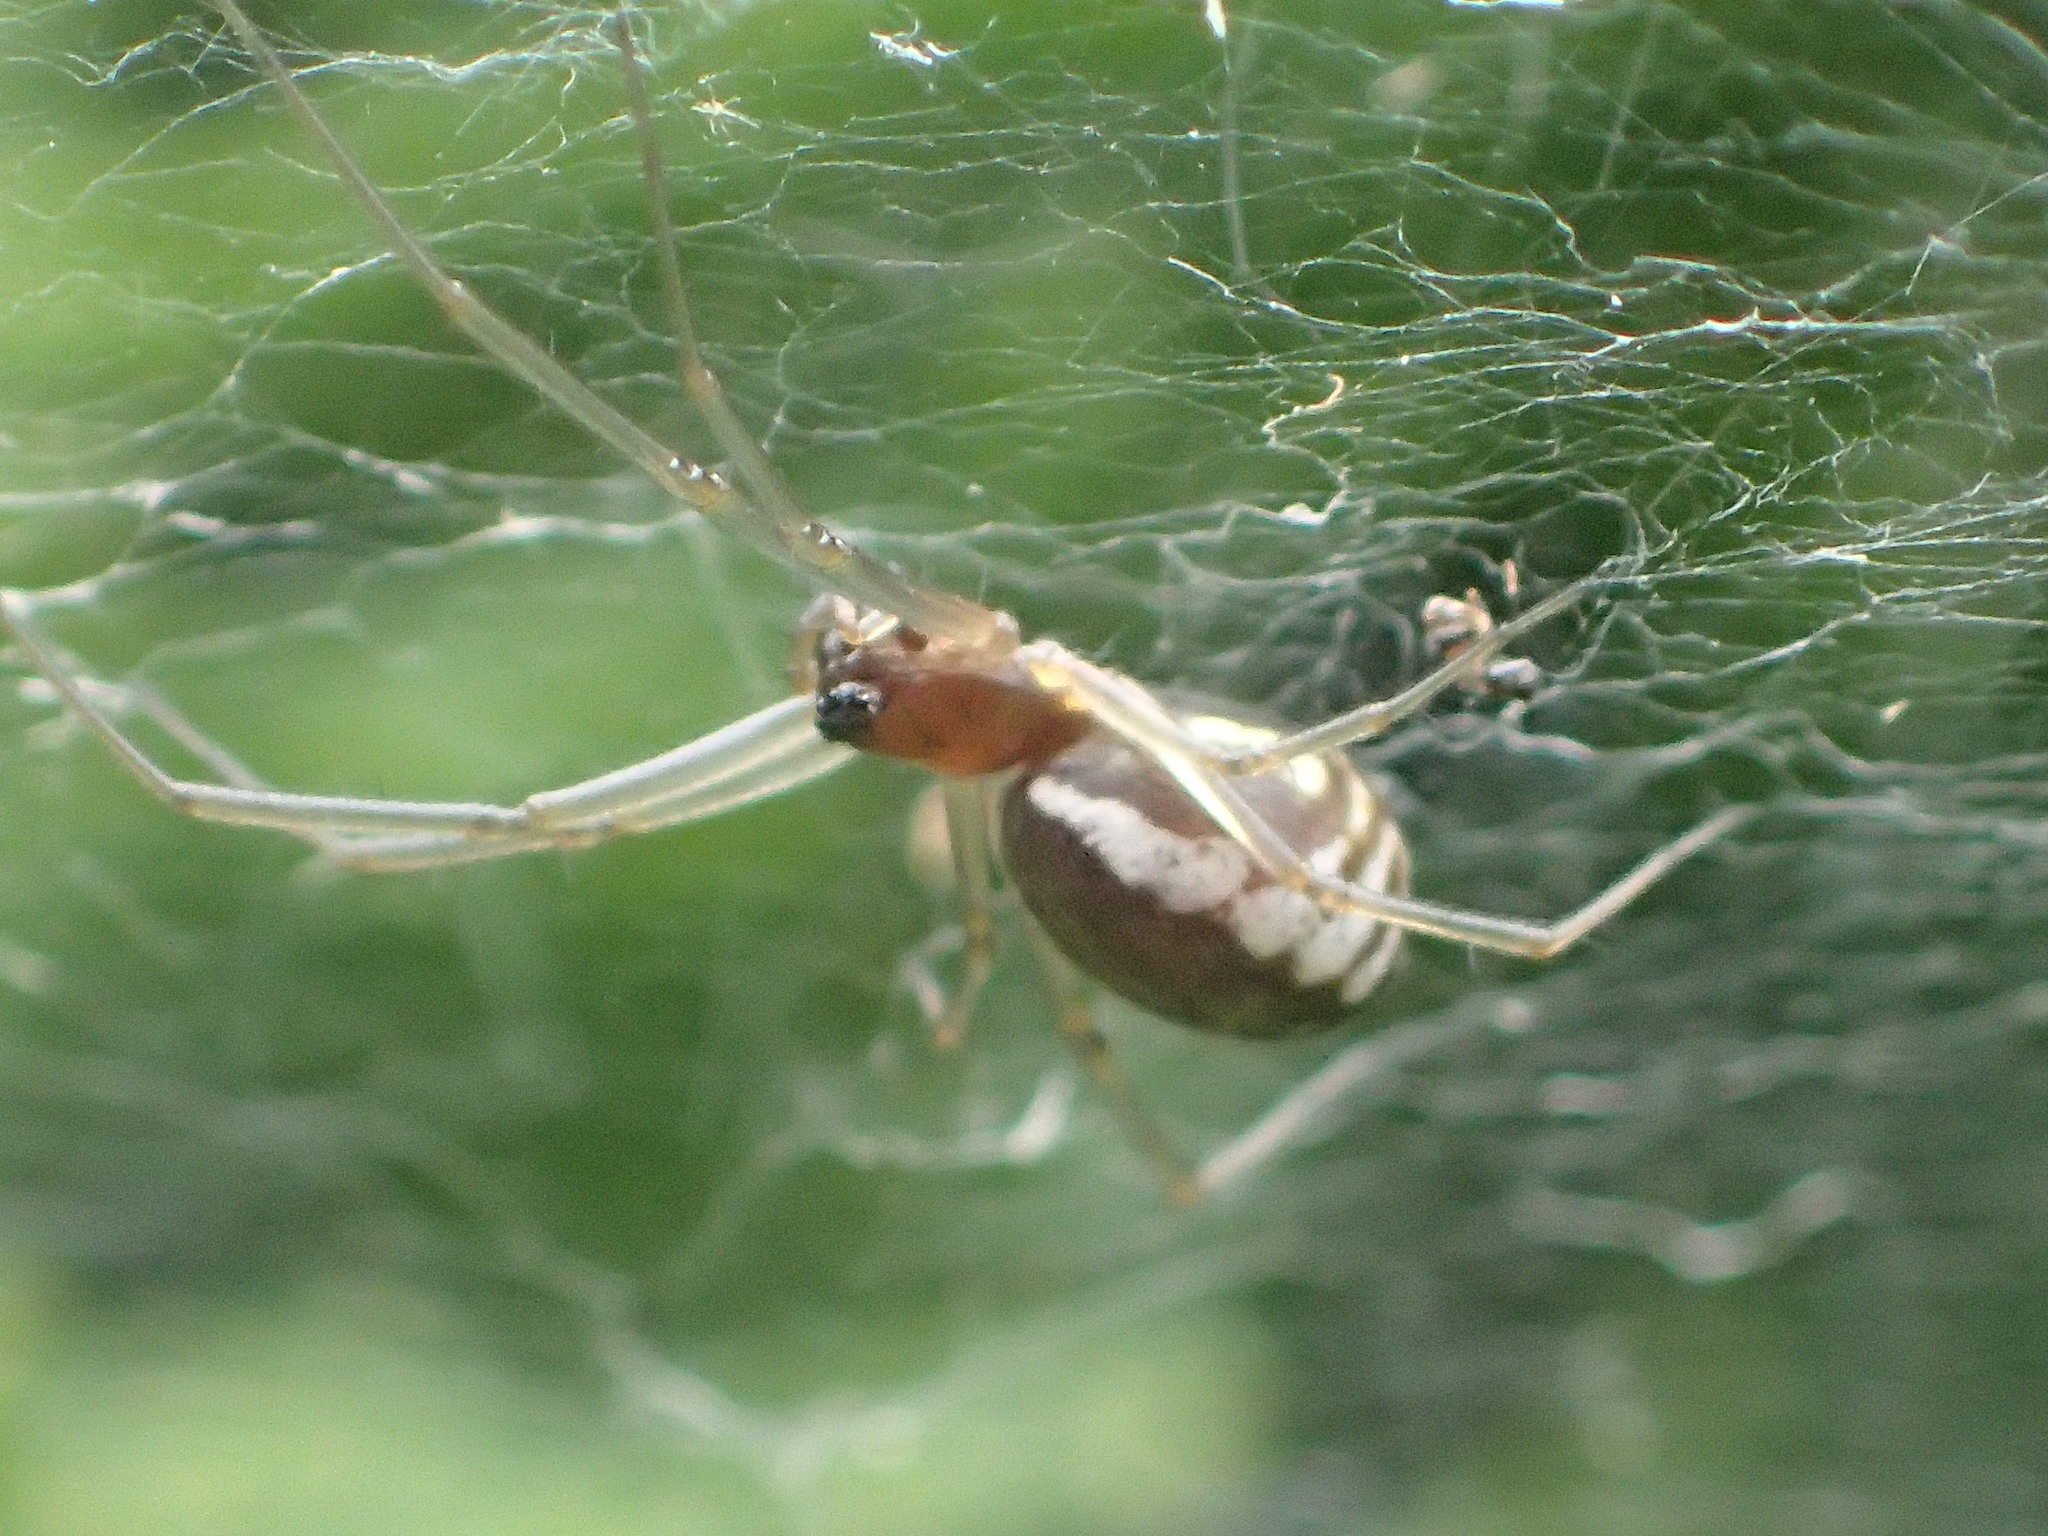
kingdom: Animalia
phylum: Arthropoda
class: Arachnida
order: Araneae
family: Linyphiidae
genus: Frontinella
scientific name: Frontinella pyramitela
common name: Bowl-and-doily spider
